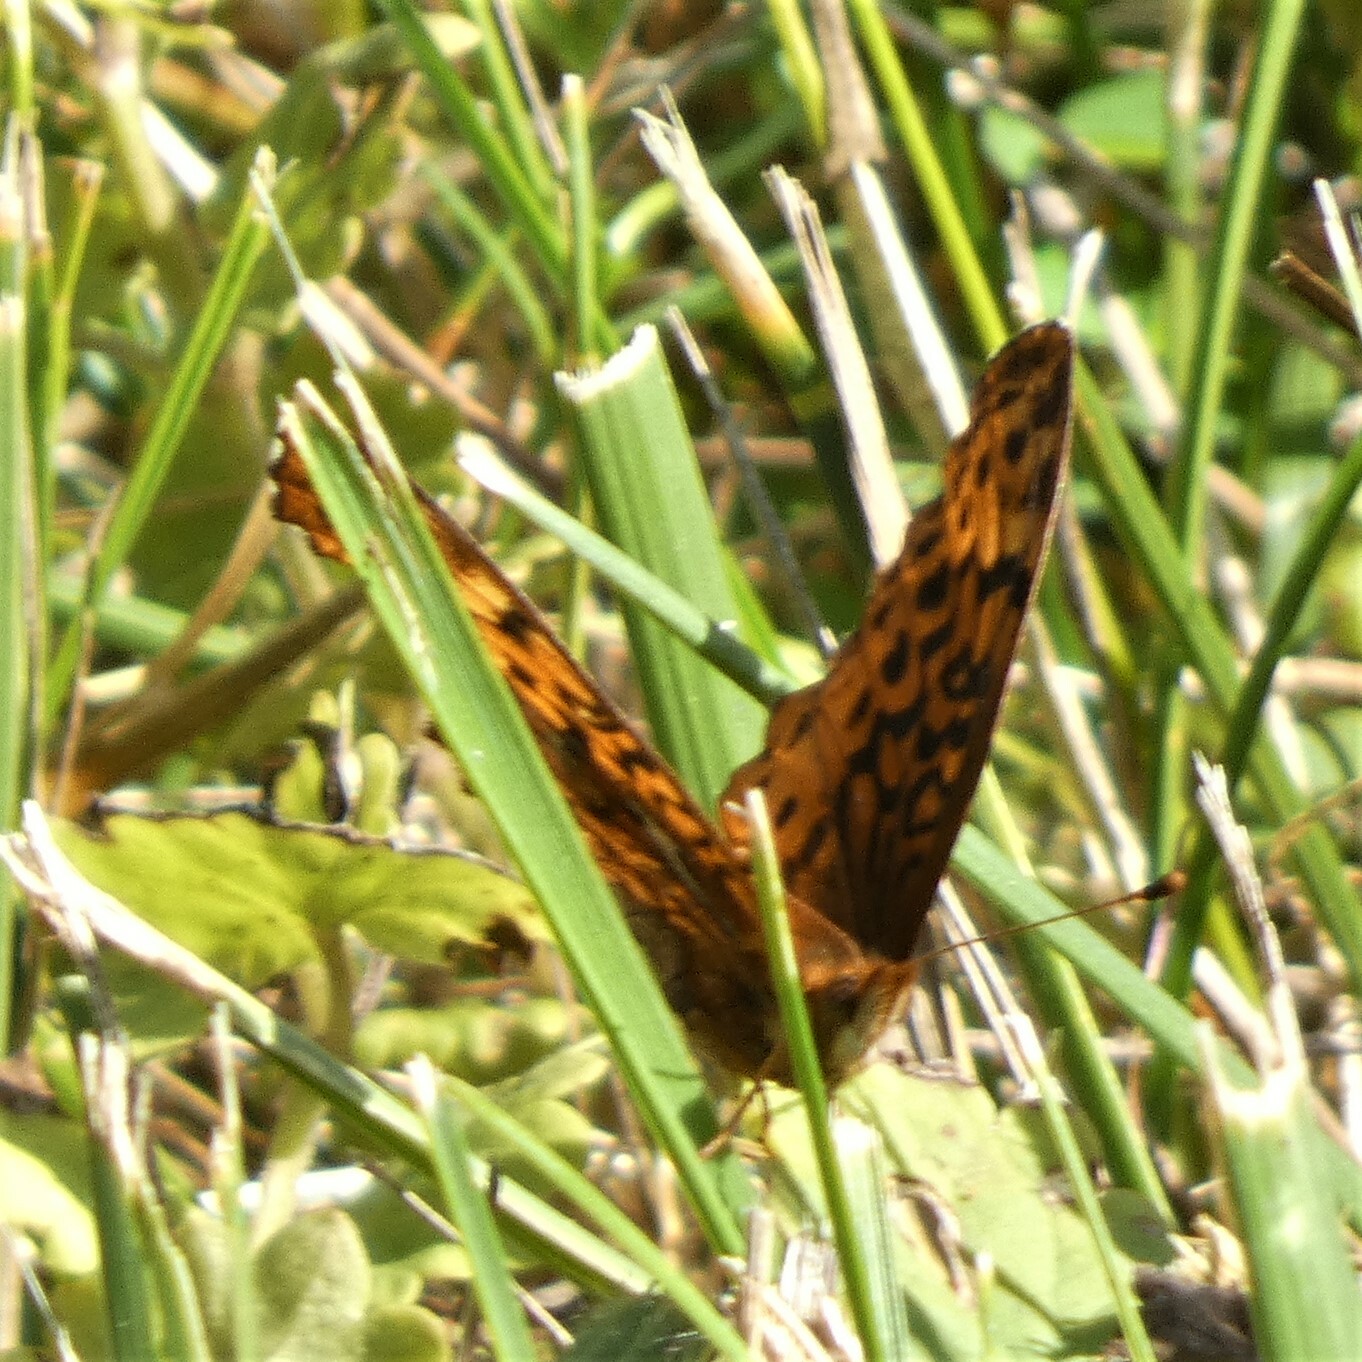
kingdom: Animalia
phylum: Arthropoda
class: Insecta
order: Lepidoptera
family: Nymphalidae
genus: Clossiana
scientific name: Clossiana toddi
